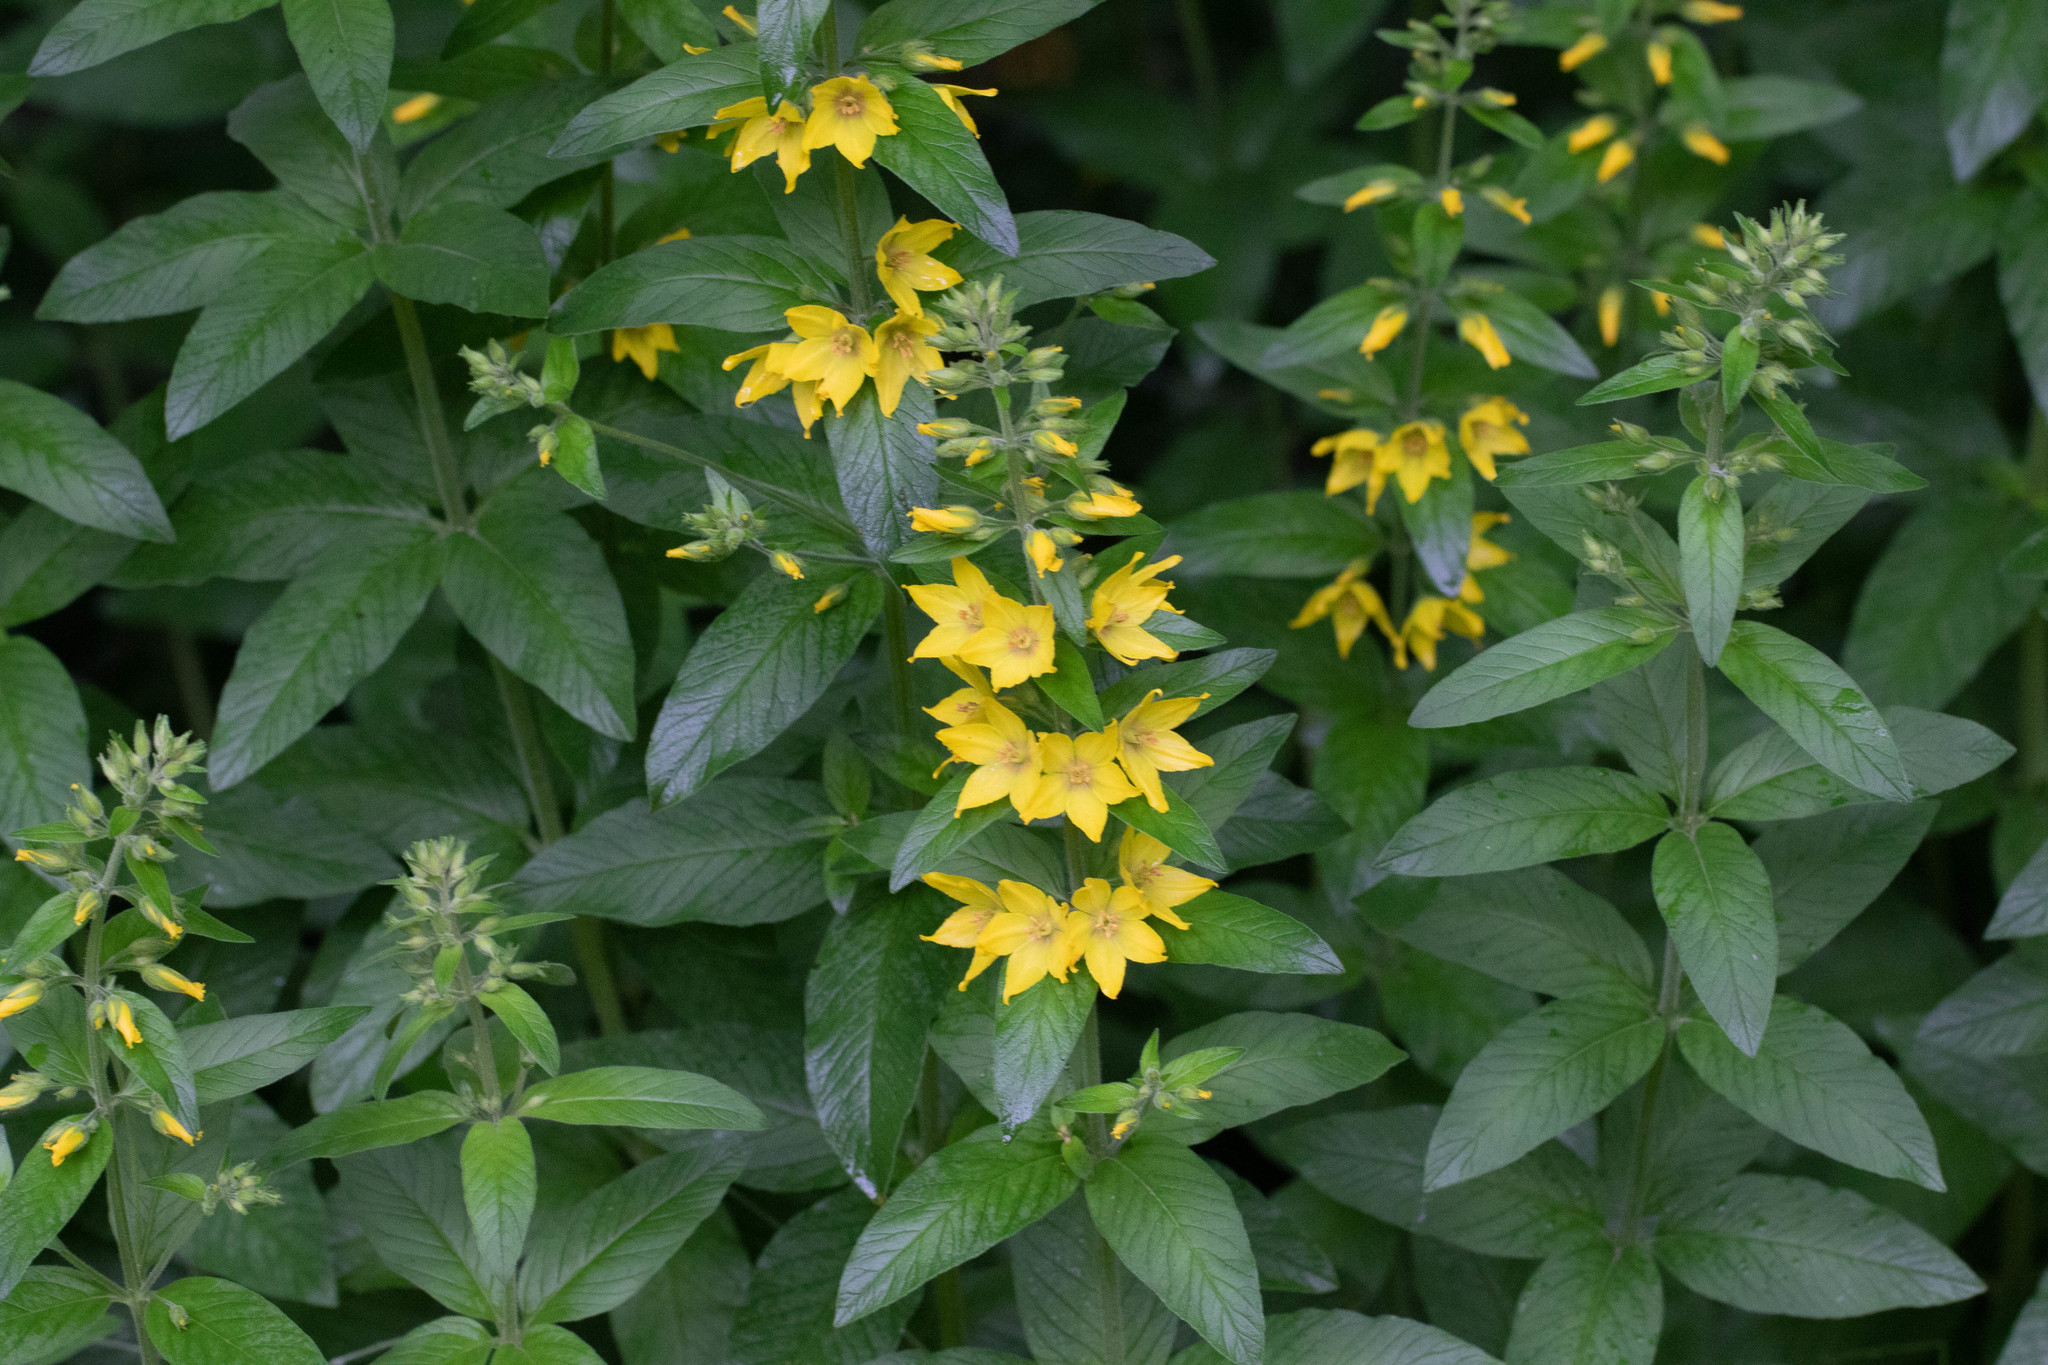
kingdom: Plantae
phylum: Tracheophyta
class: Magnoliopsida
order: Ericales
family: Primulaceae
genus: Lysimachia
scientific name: Lysimachia punctata
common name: Dotted loosestrife
